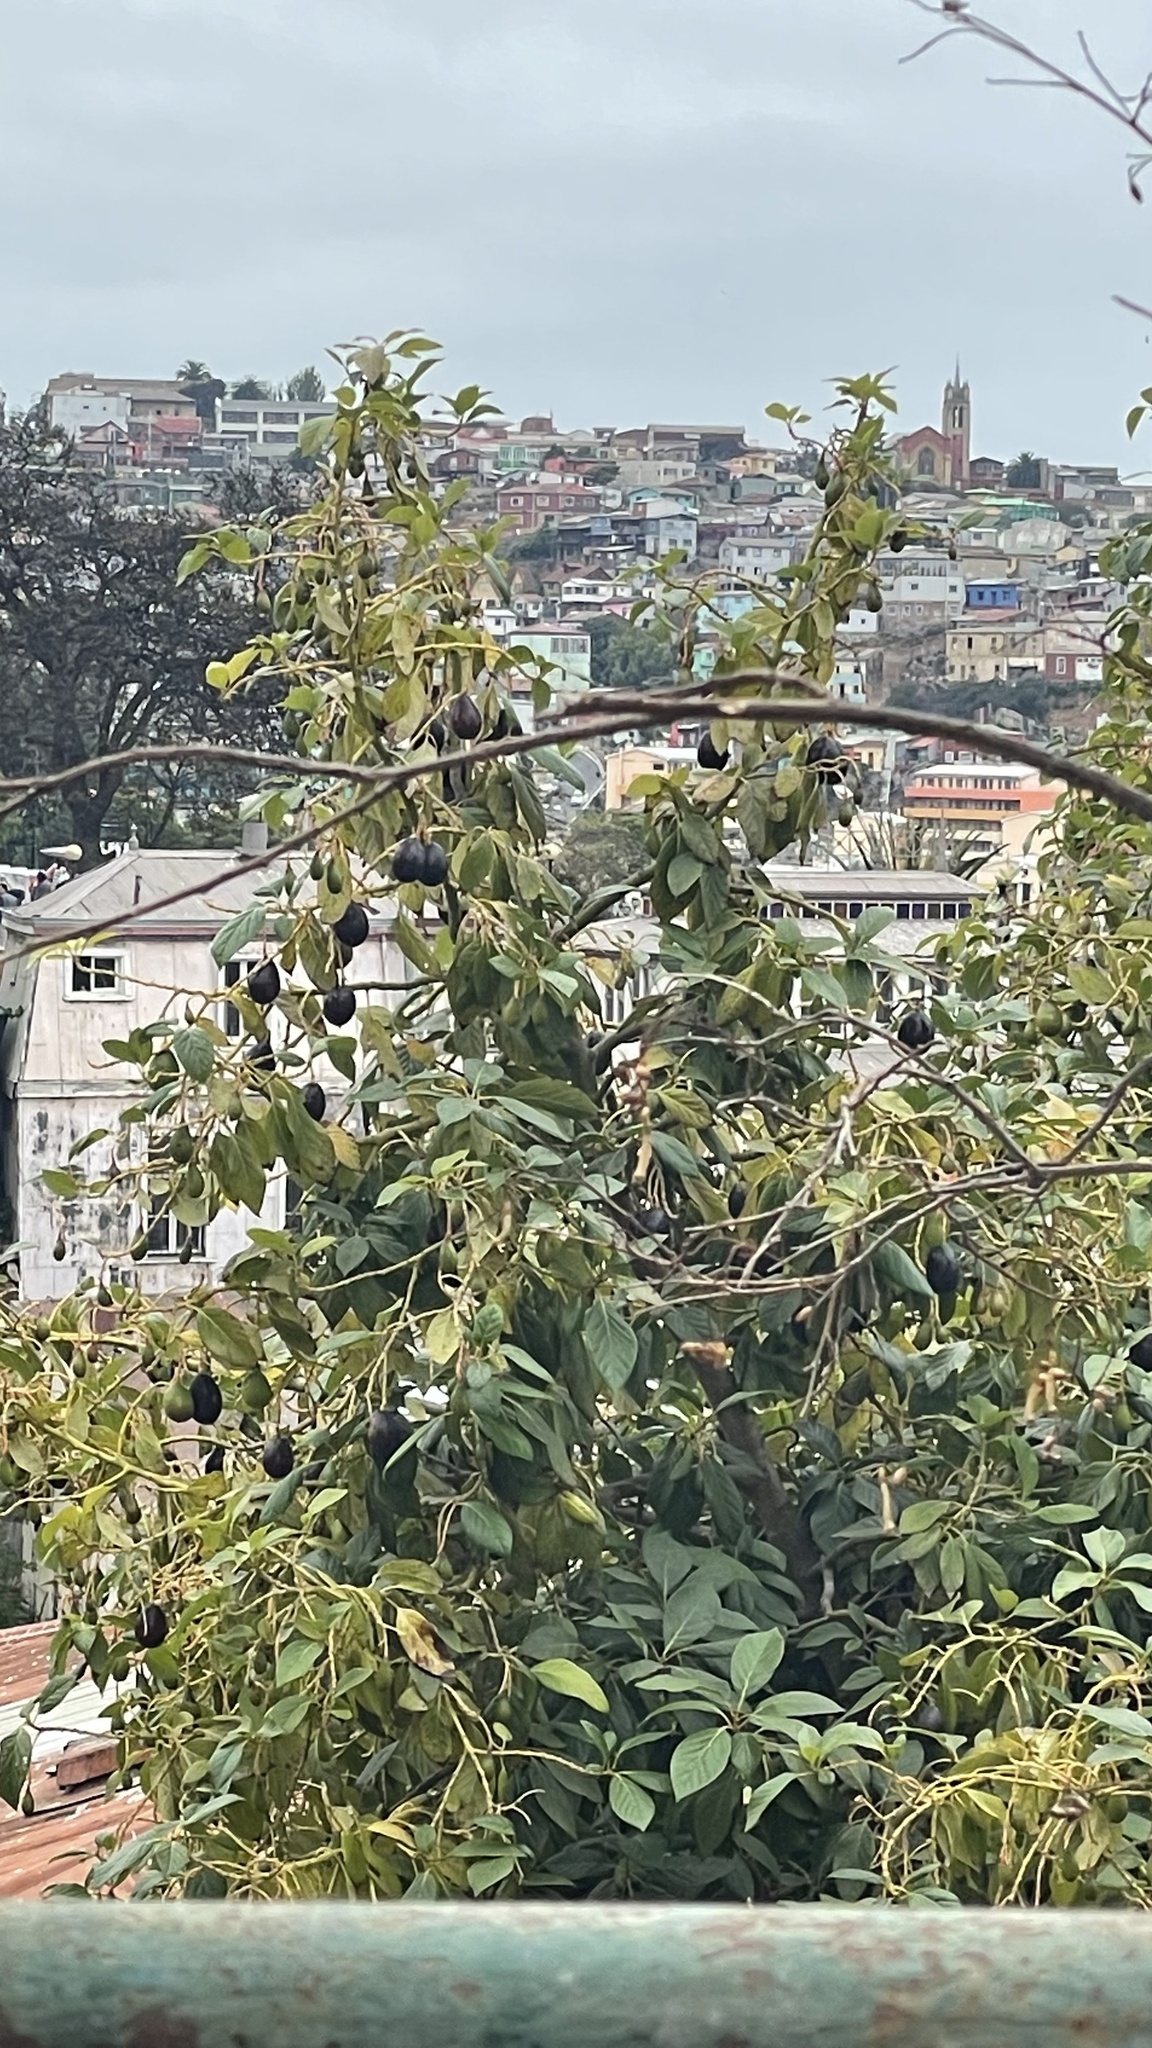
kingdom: Plantae
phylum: Tracheophyta
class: Magnoliopsida
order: Laurales
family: Lauraceae
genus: Persea
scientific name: Persea americana
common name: Avocado
